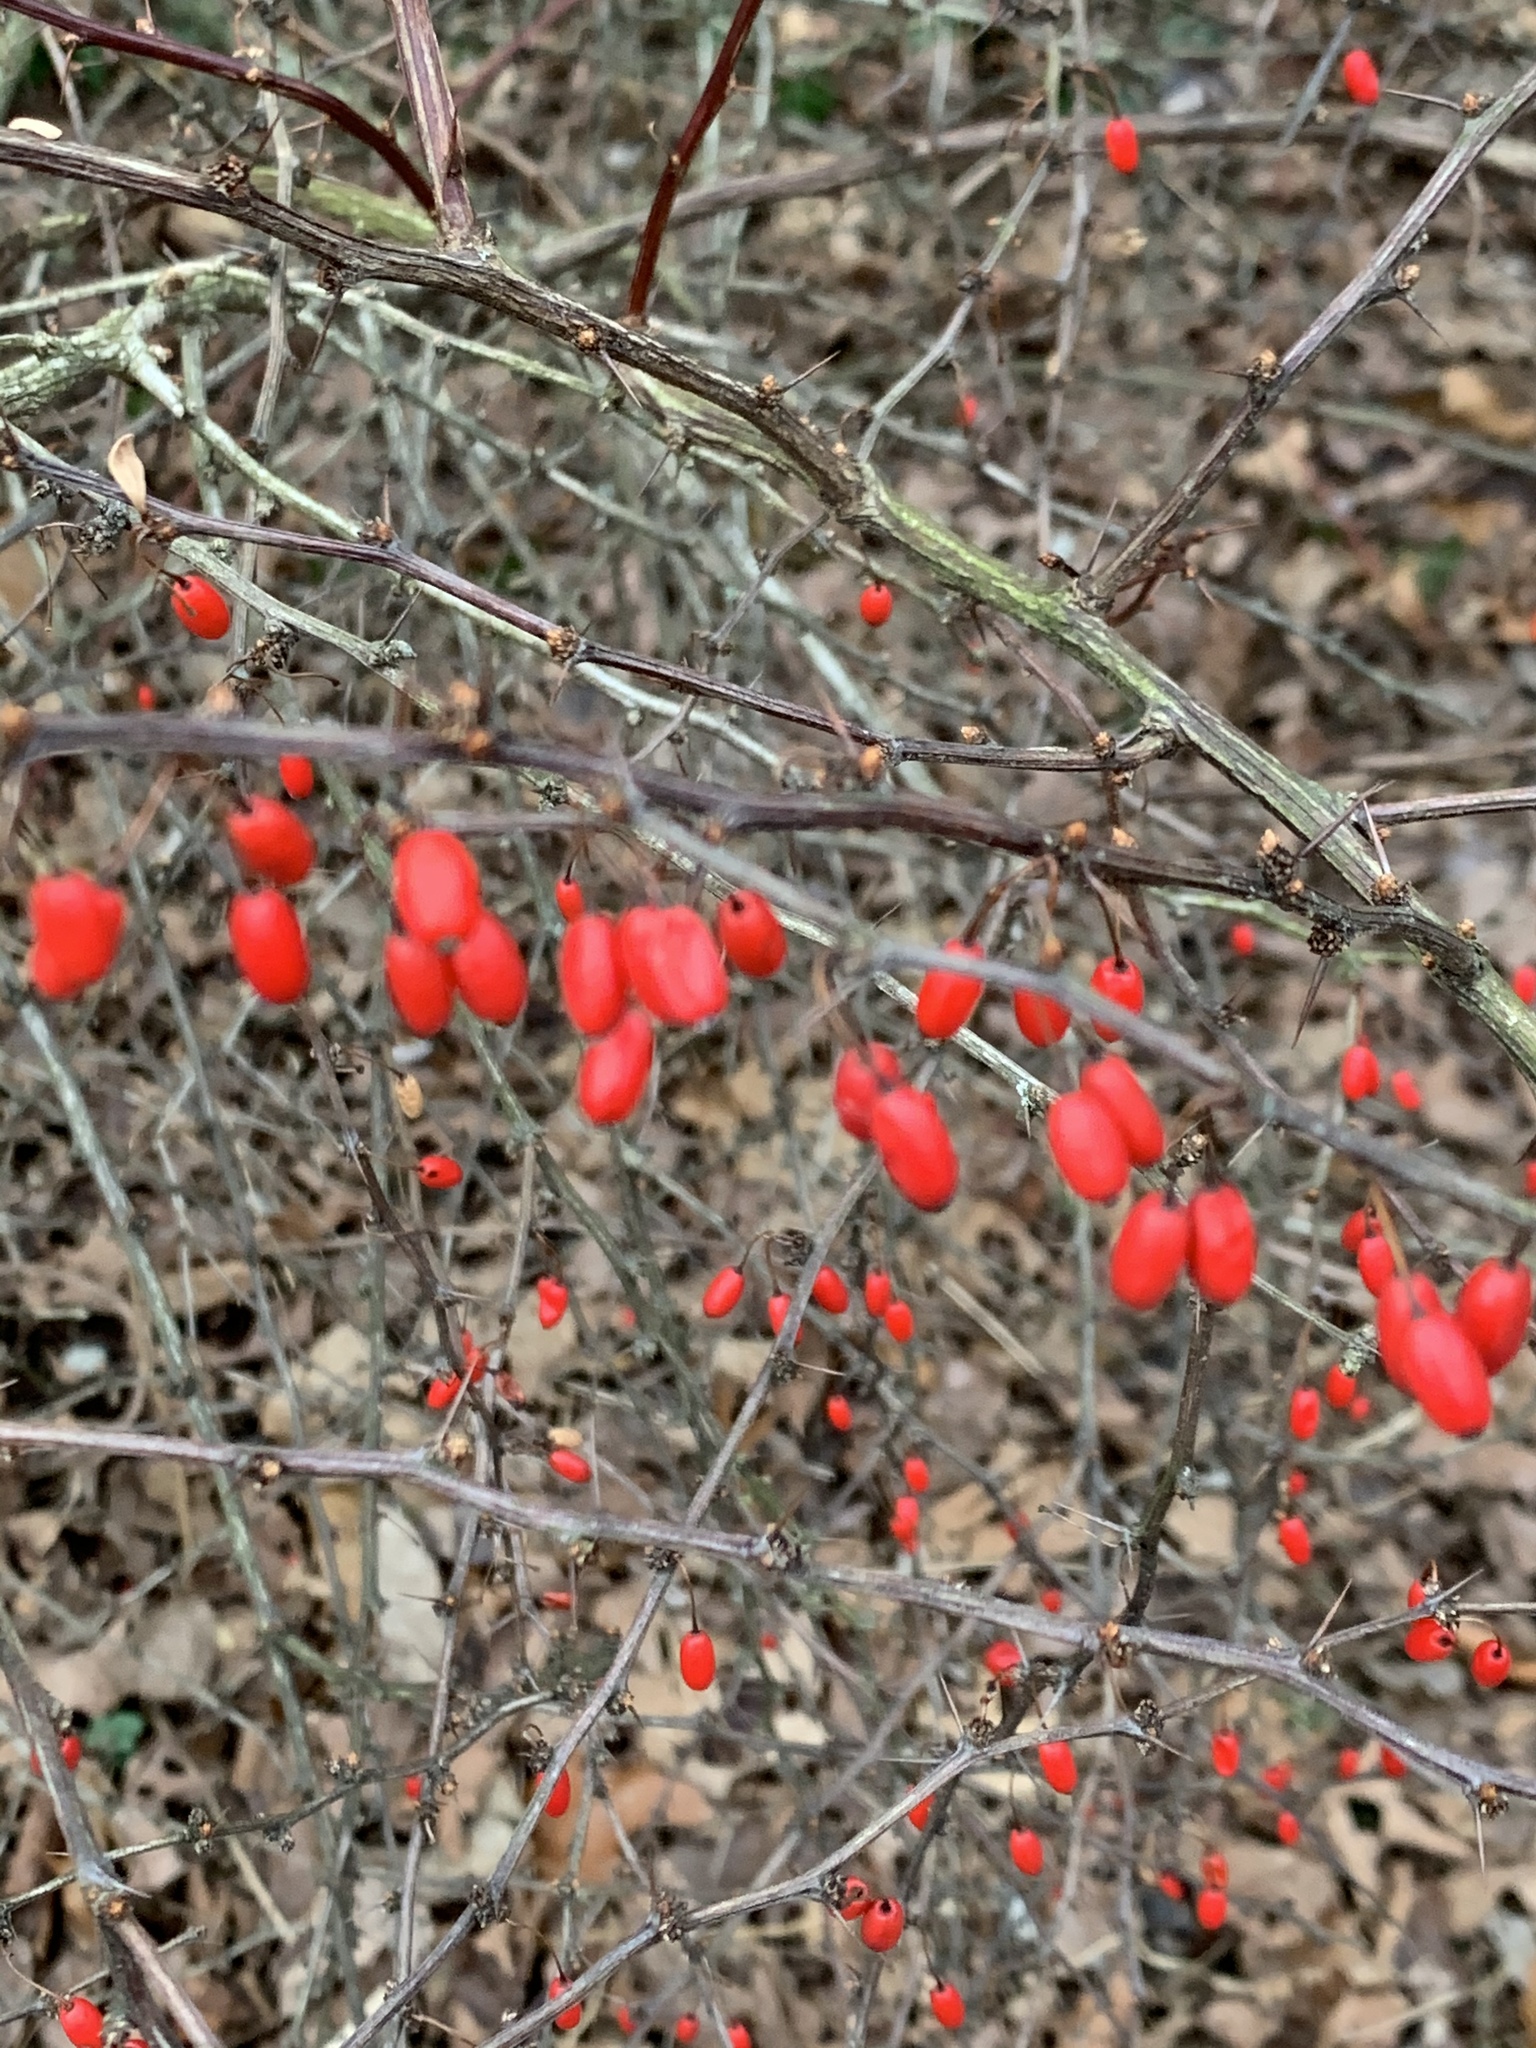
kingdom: Plantae
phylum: Tracheophyta
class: Magnoliopsida
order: Ranunculales
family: Berberidaceae
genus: Berberis
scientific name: Berberis thunbergii
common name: Japanese barberry
